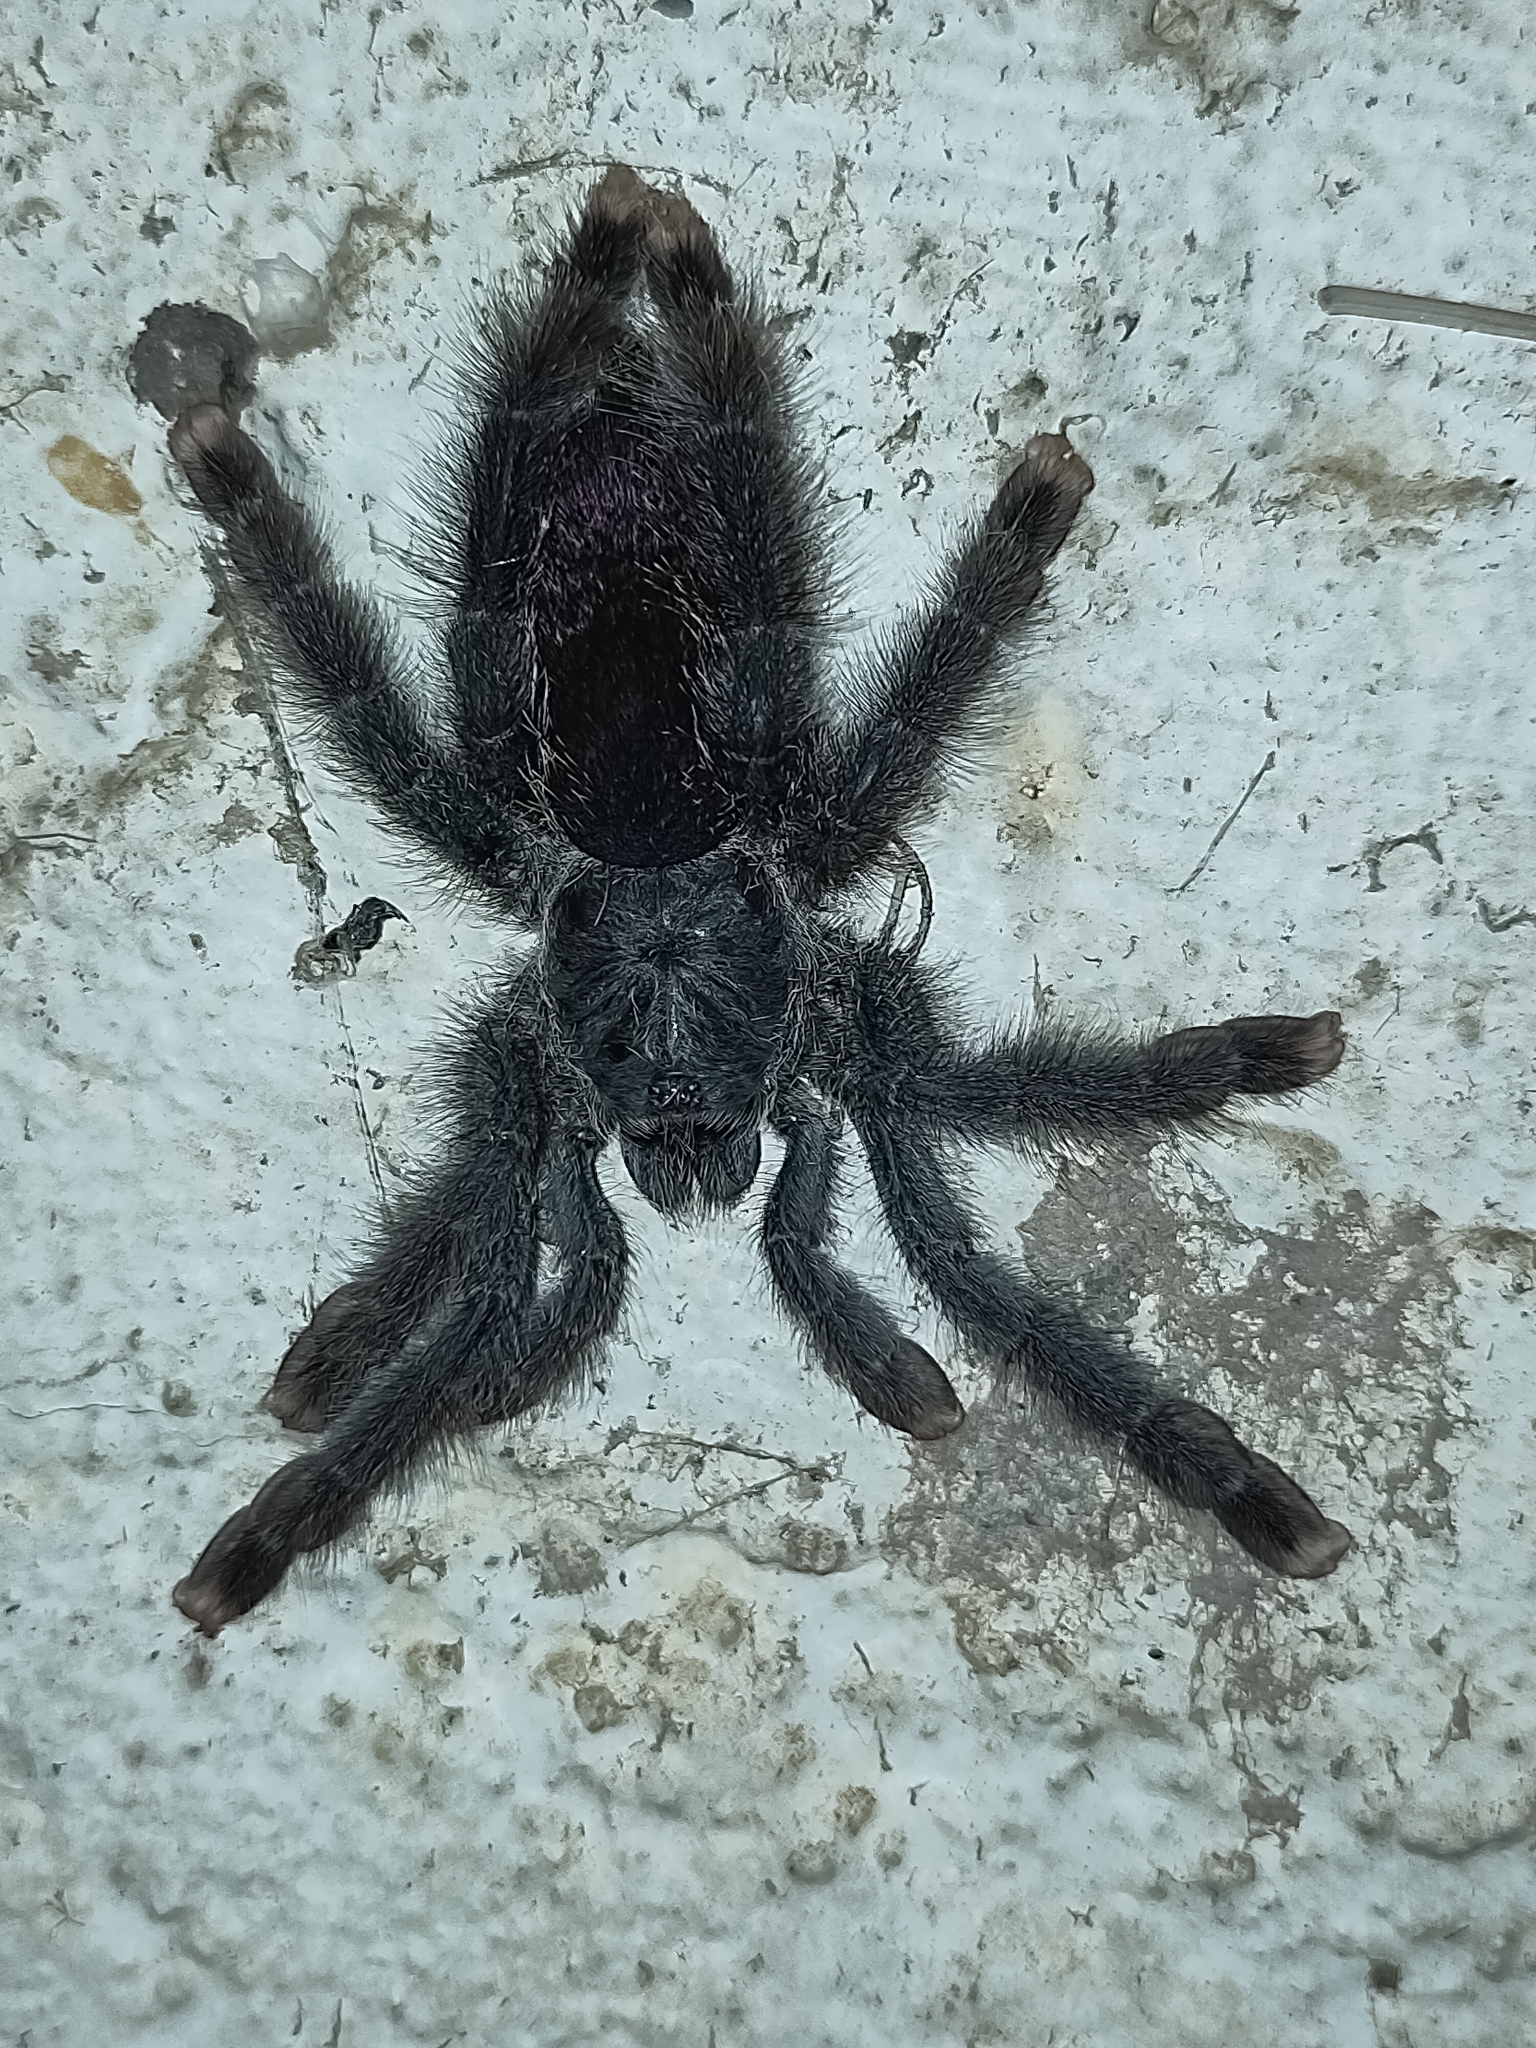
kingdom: Animalia
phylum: Arthropoda
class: Arachnida
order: Araneae
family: Theraphosidae
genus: Avicularia
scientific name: Avicularia avicularia
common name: Tarantula spiders
